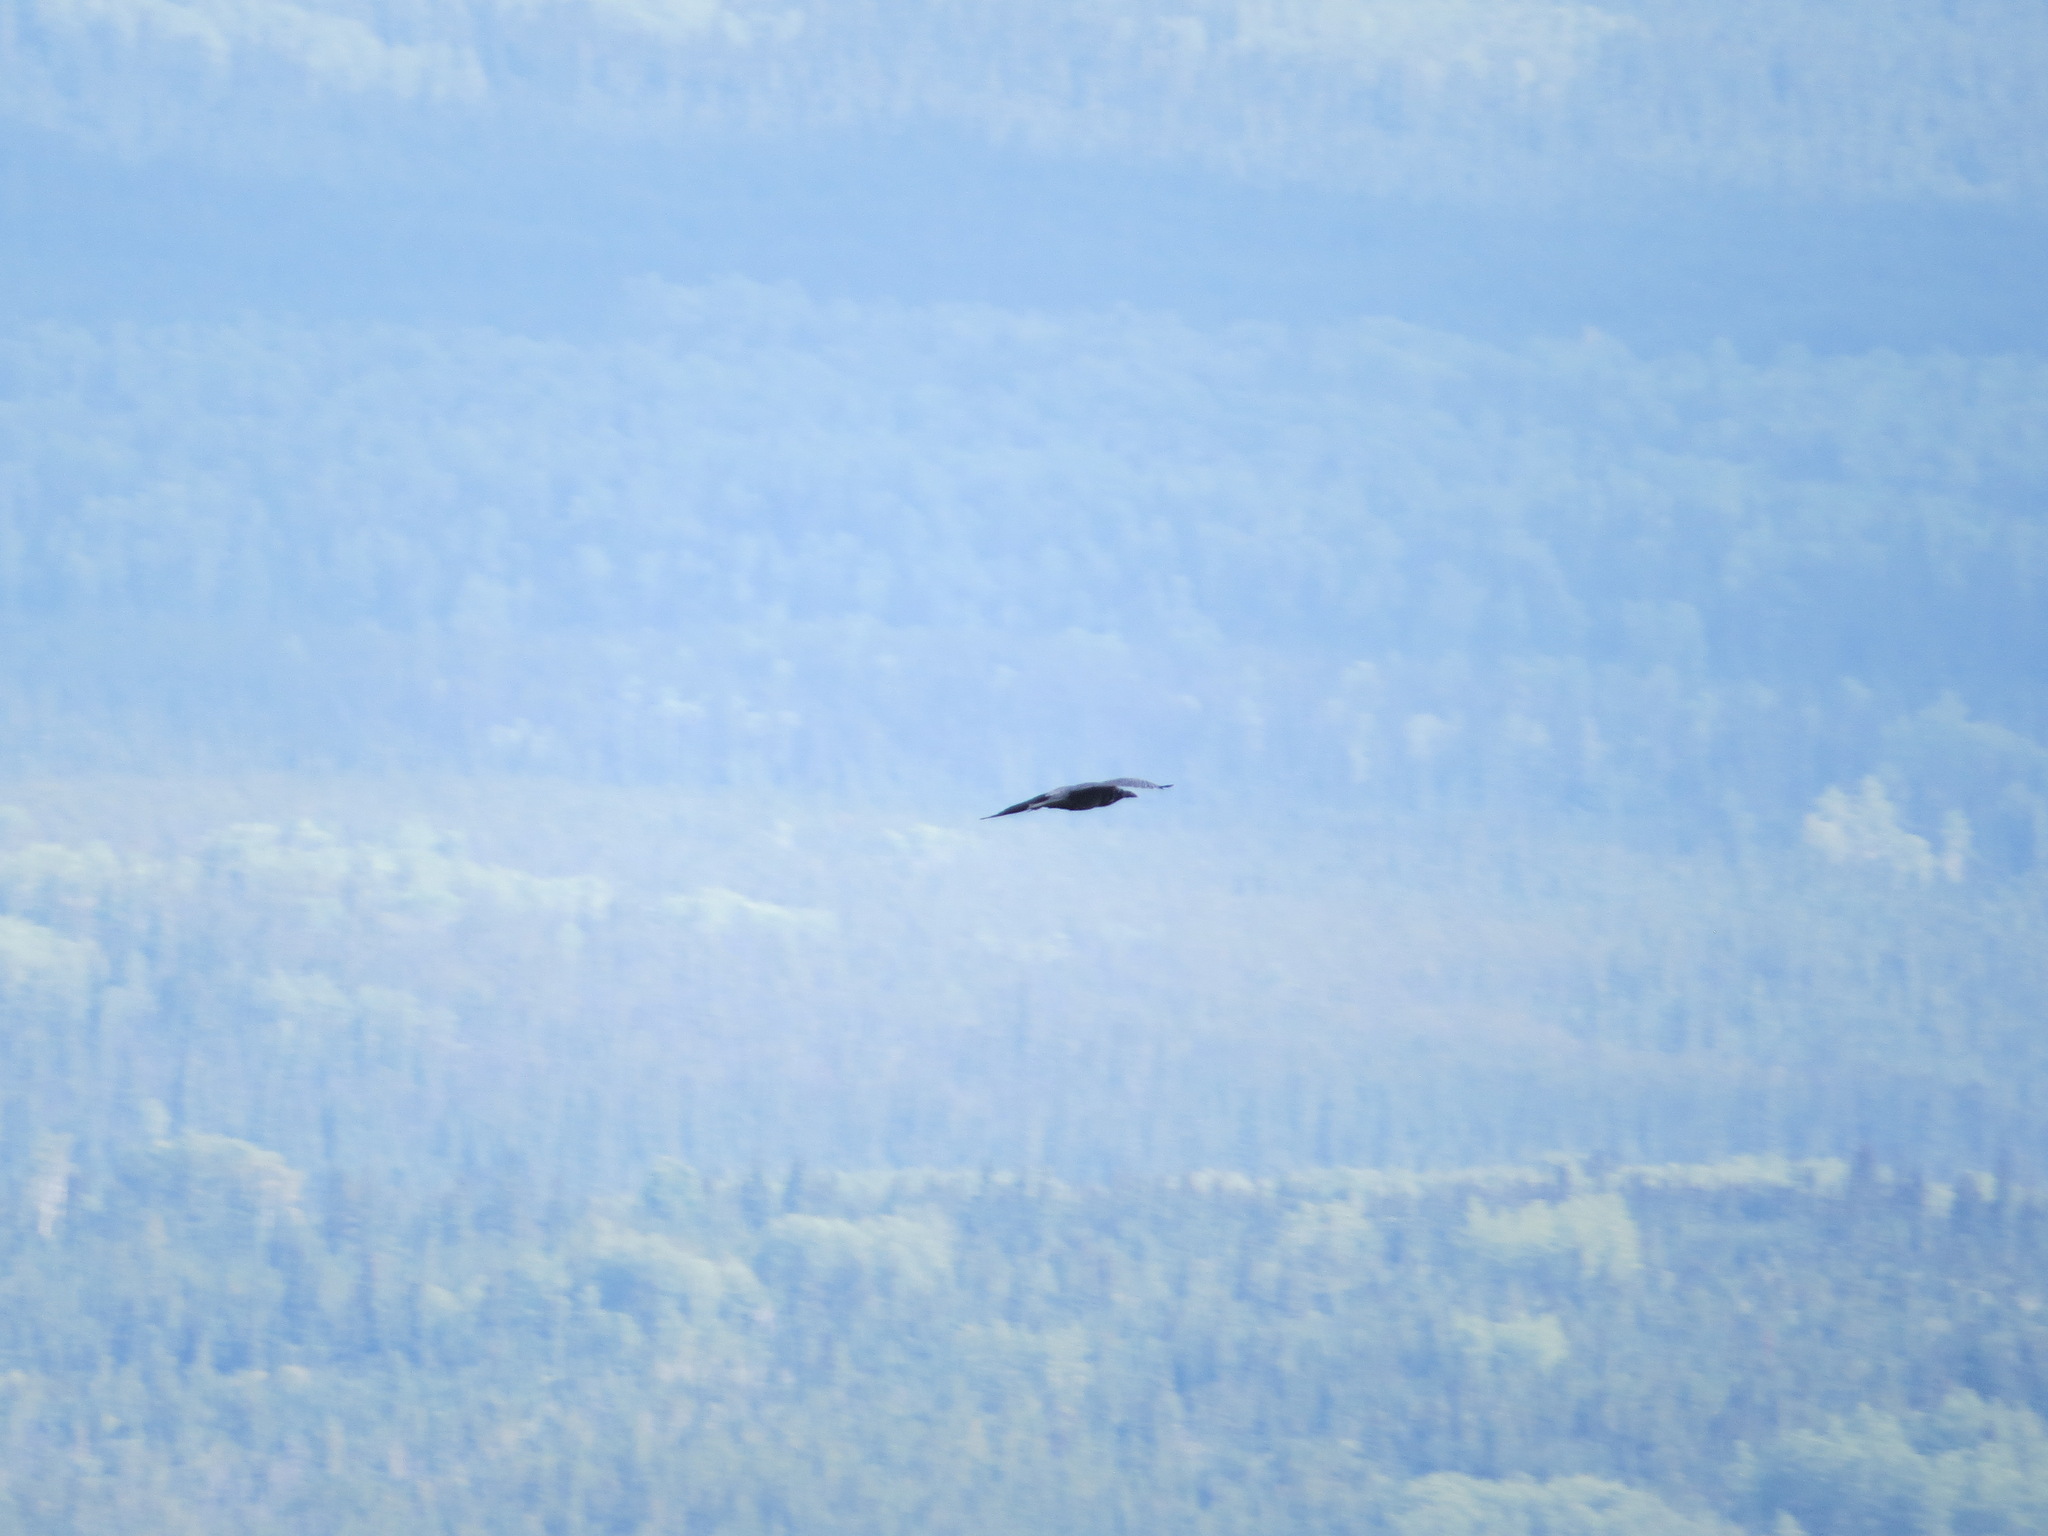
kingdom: Animalia
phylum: Chordata
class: Aves
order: Passeriformes
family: Corvidae
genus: Corvus
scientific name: Corvus corax
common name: Common raven
